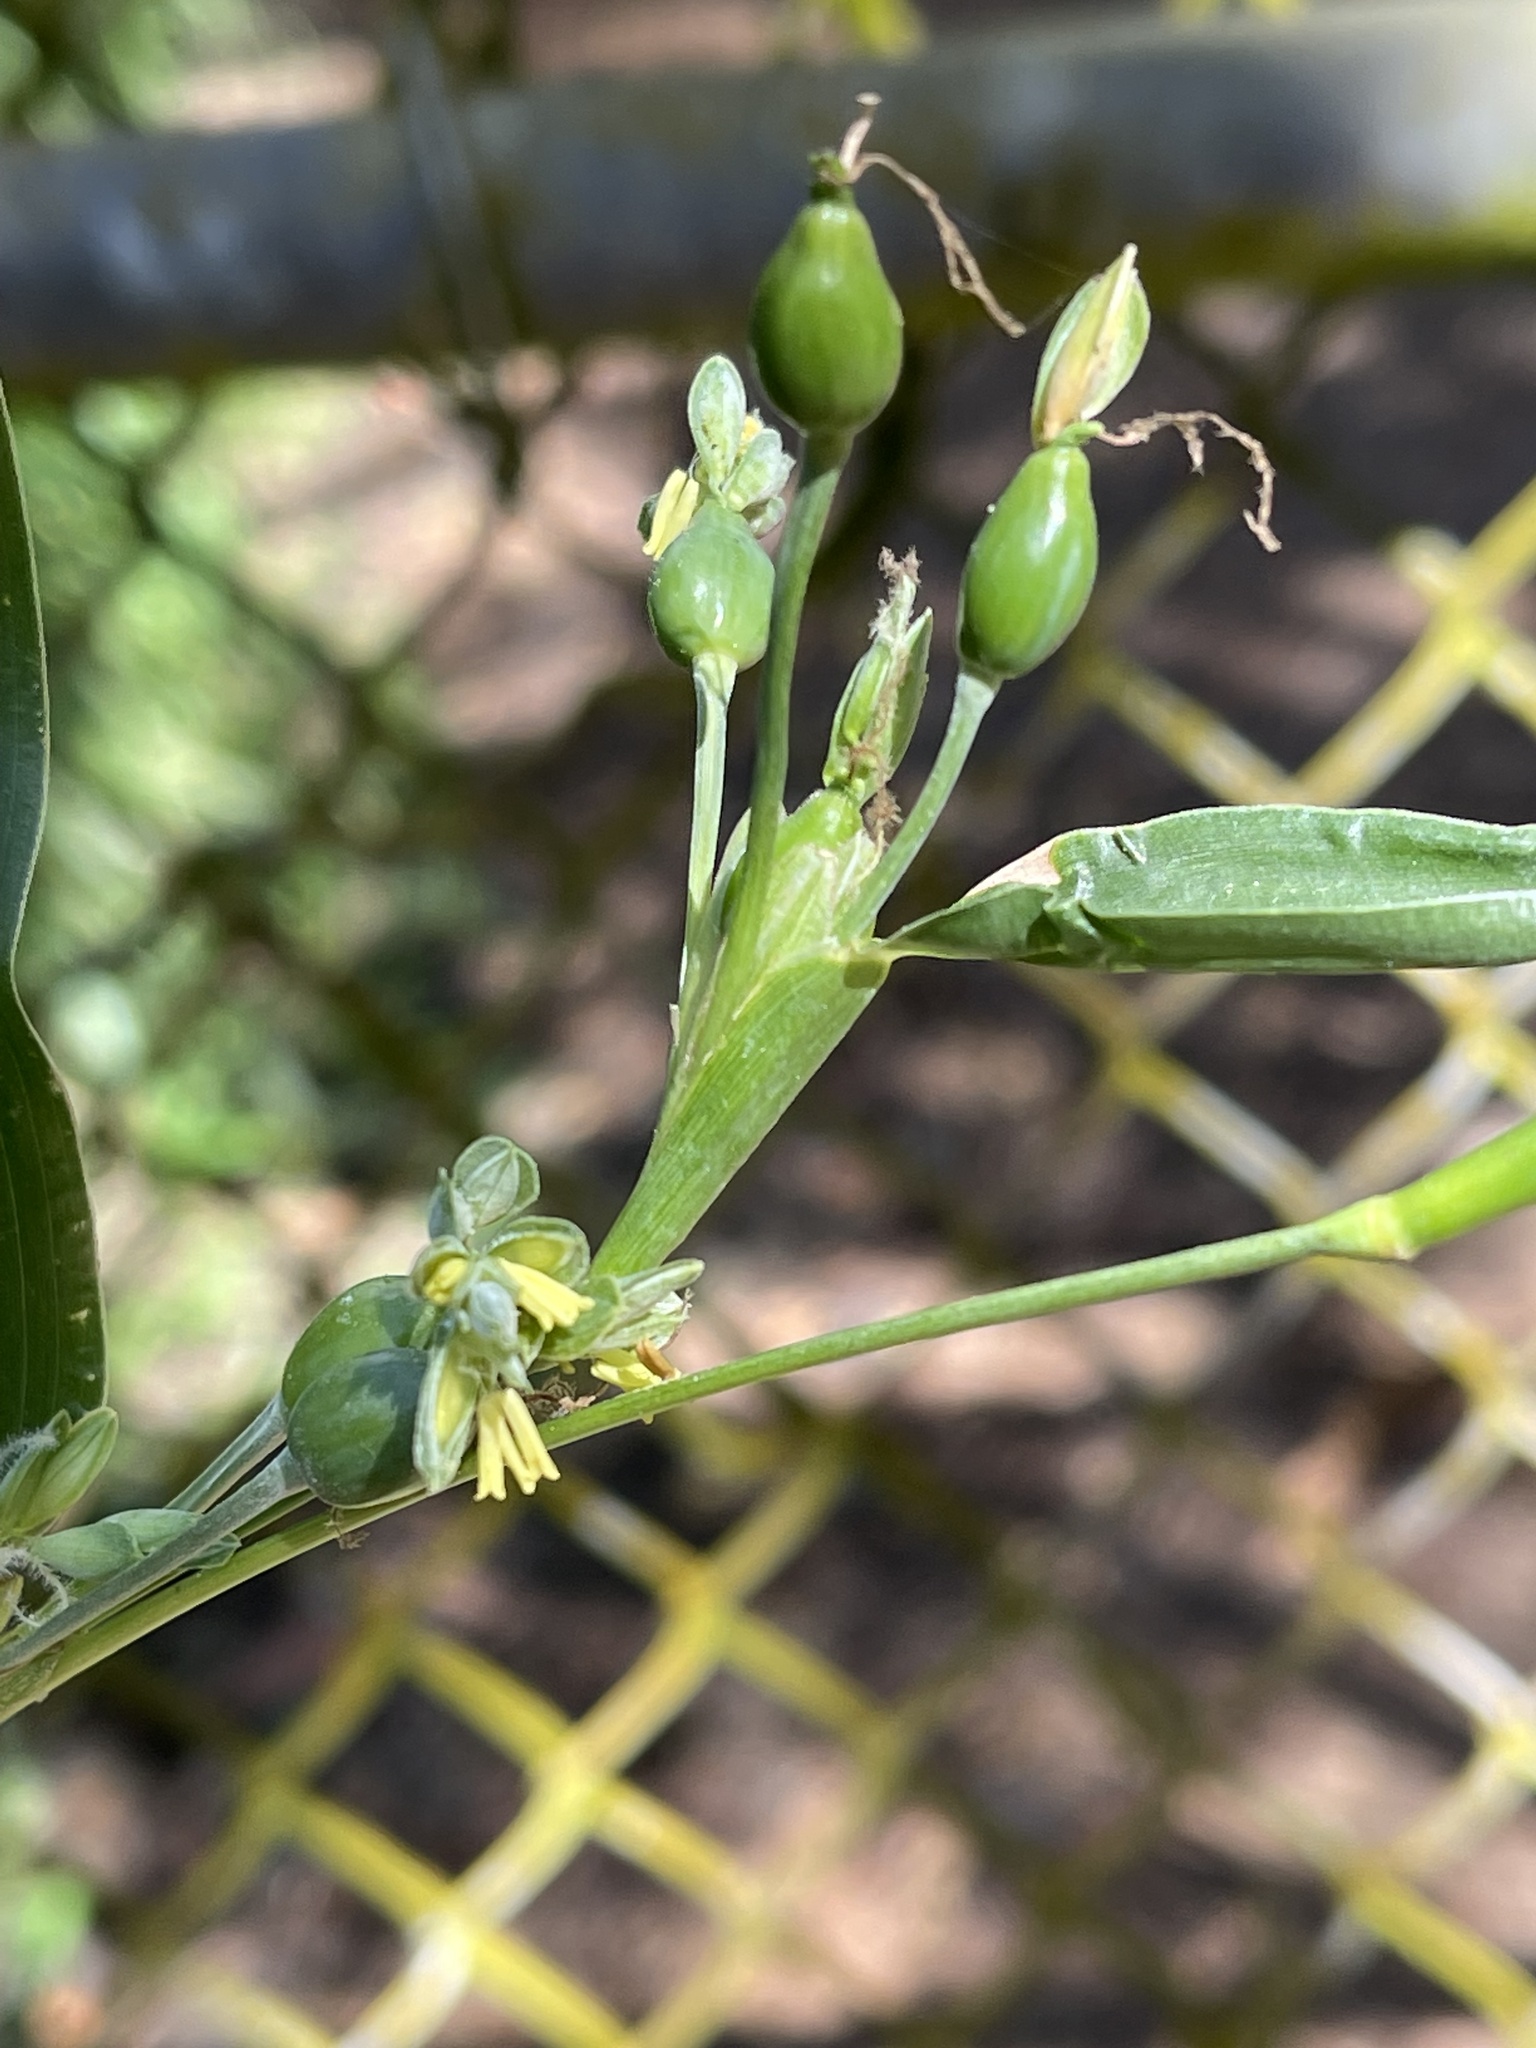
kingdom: Plantae
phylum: Tracheophyta
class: Liliopsida
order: Poales
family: Poaceae
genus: Coix
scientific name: Coix lacryma-jobi
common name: Job's tears
